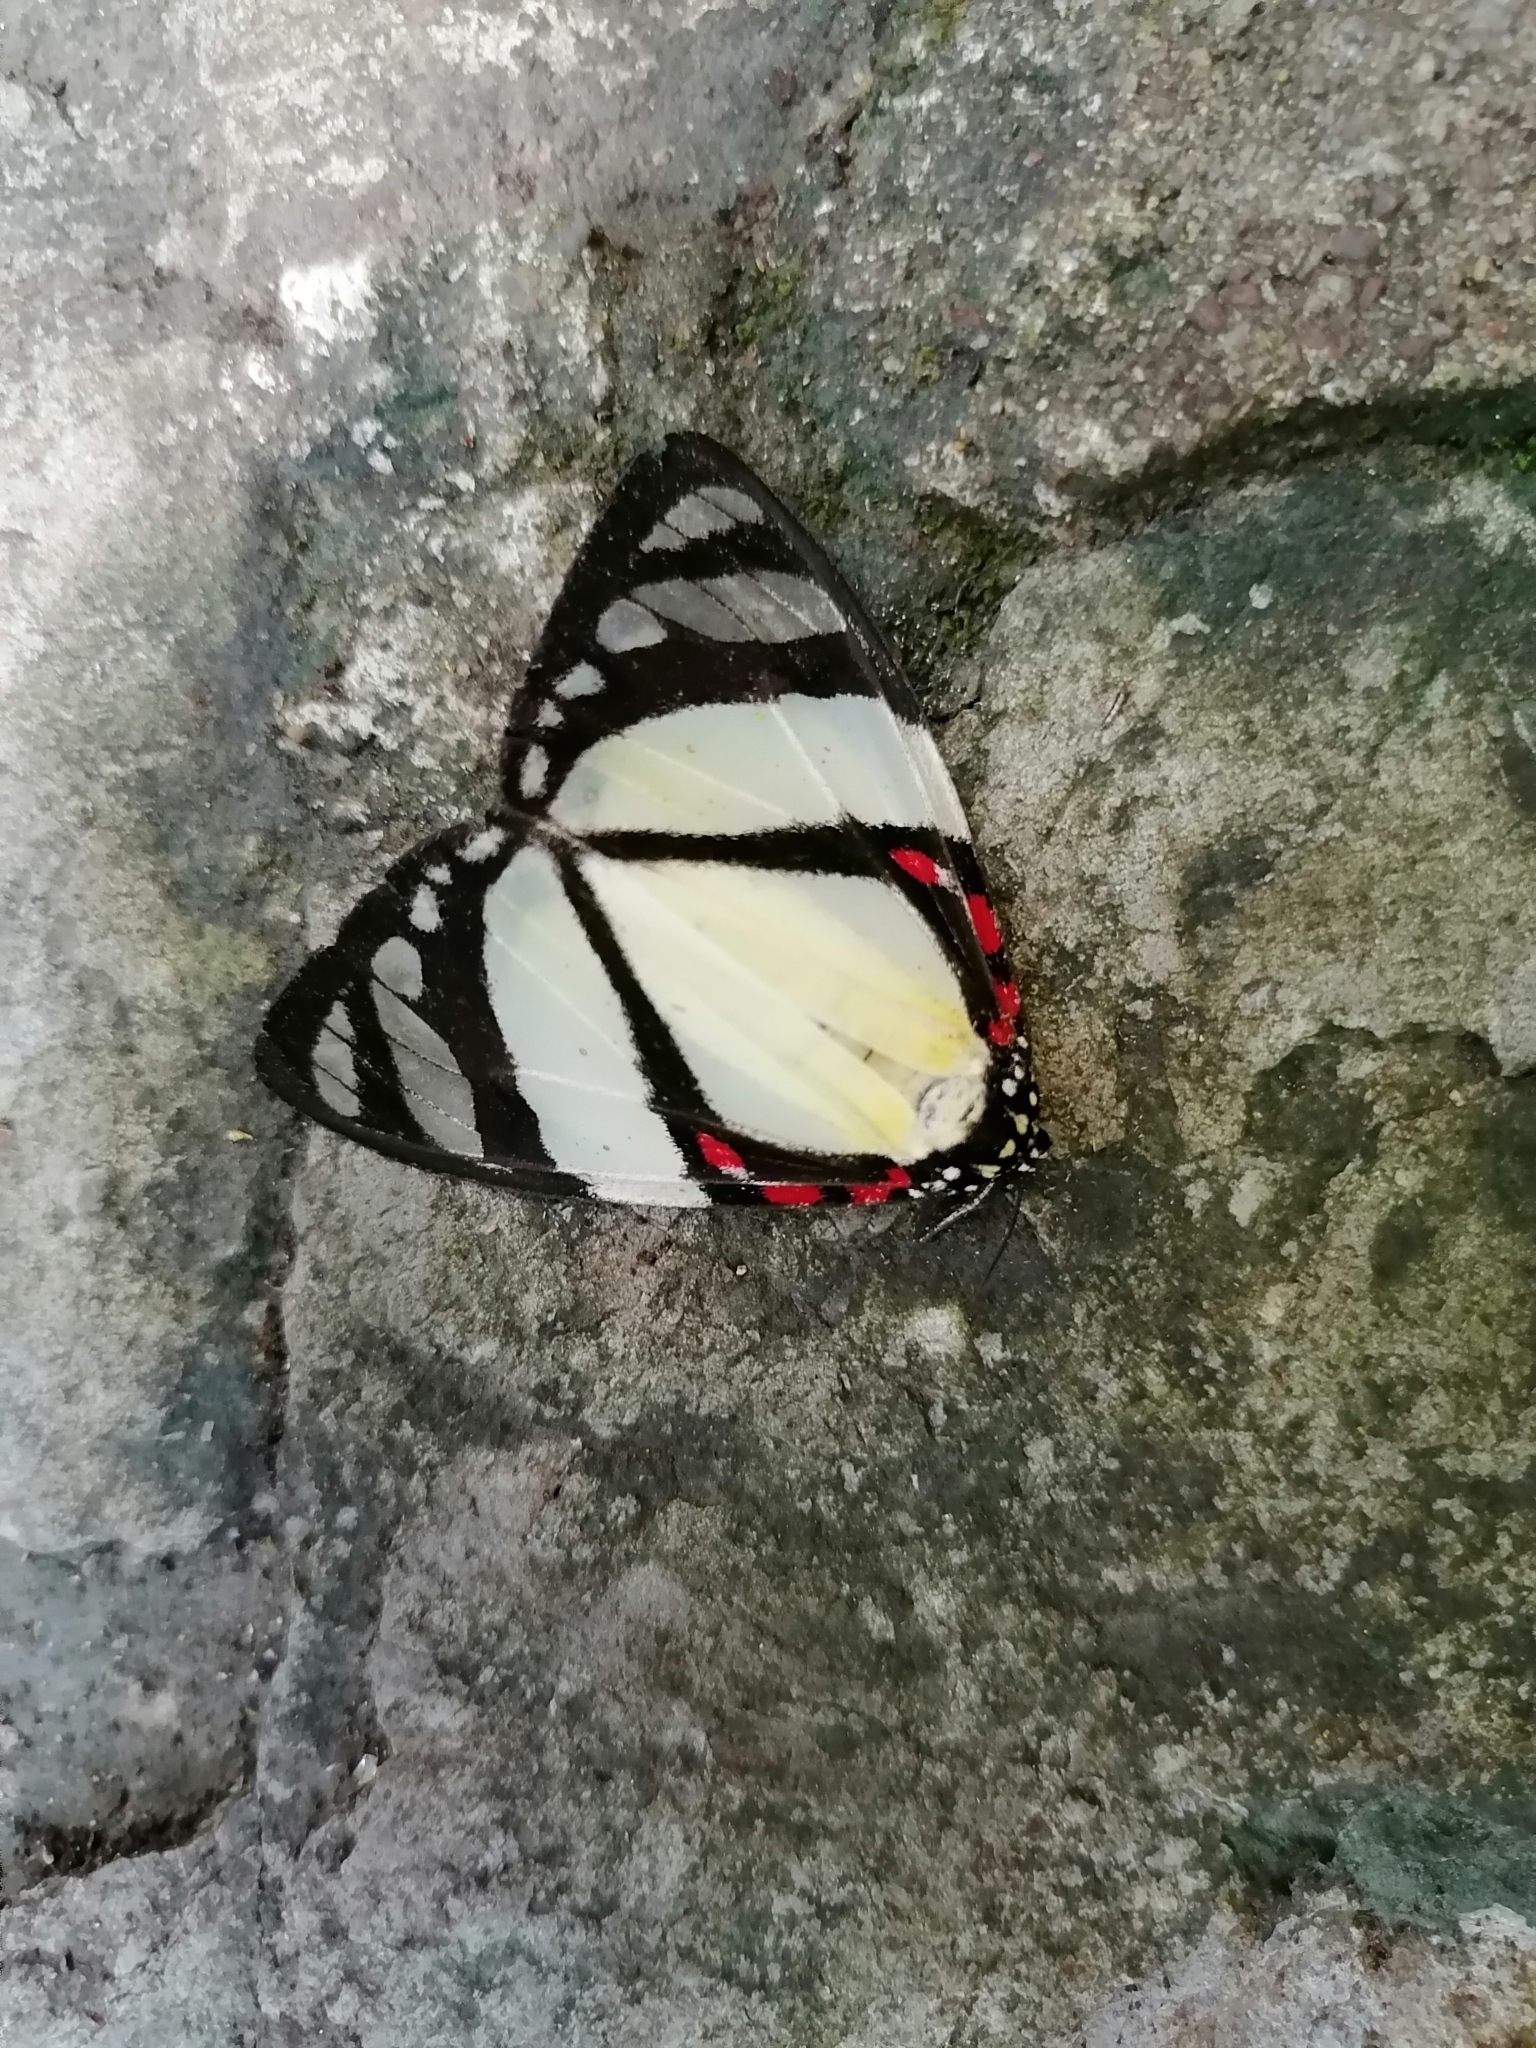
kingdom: Animalia
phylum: Arthropoda
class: Insecta
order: Lepidoptera
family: Erebidae
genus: Phaloe
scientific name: Phaloe
